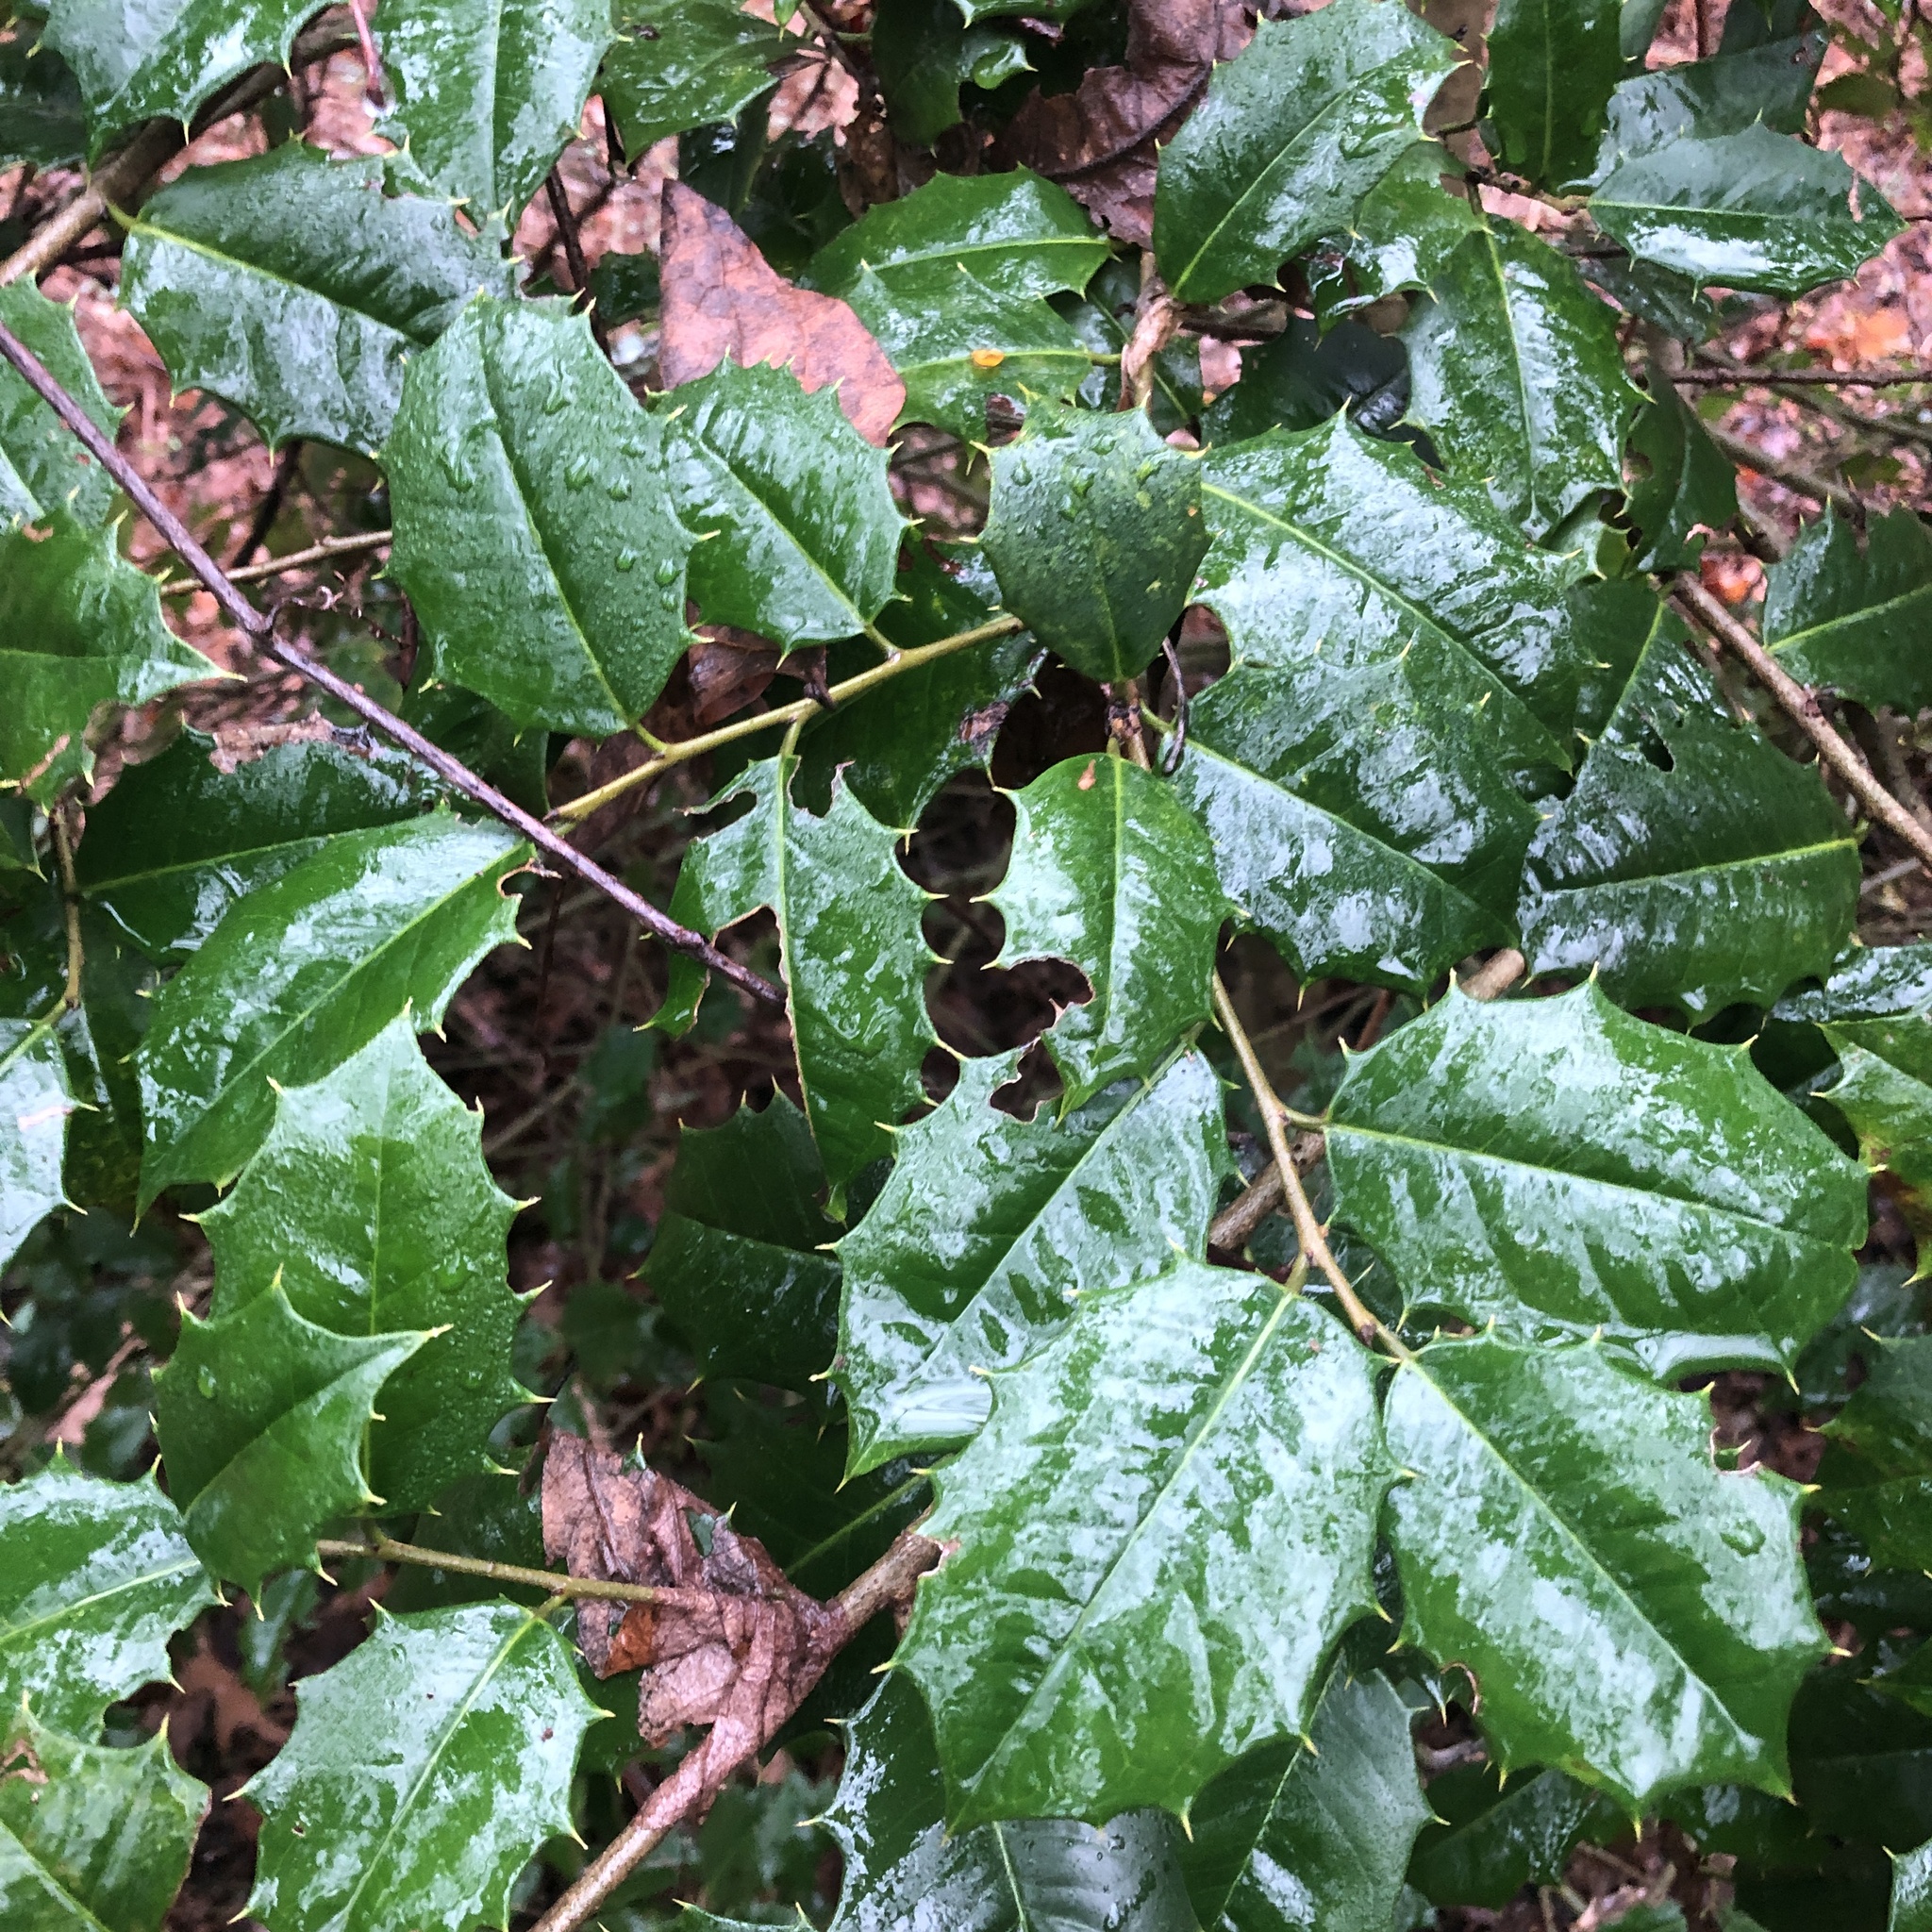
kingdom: Plantae
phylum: Tracheophyta
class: Magnoliopsida
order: Aquifoliales
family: Aquifoliaceae
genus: Ilex
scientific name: Ilex opaca
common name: American holly
